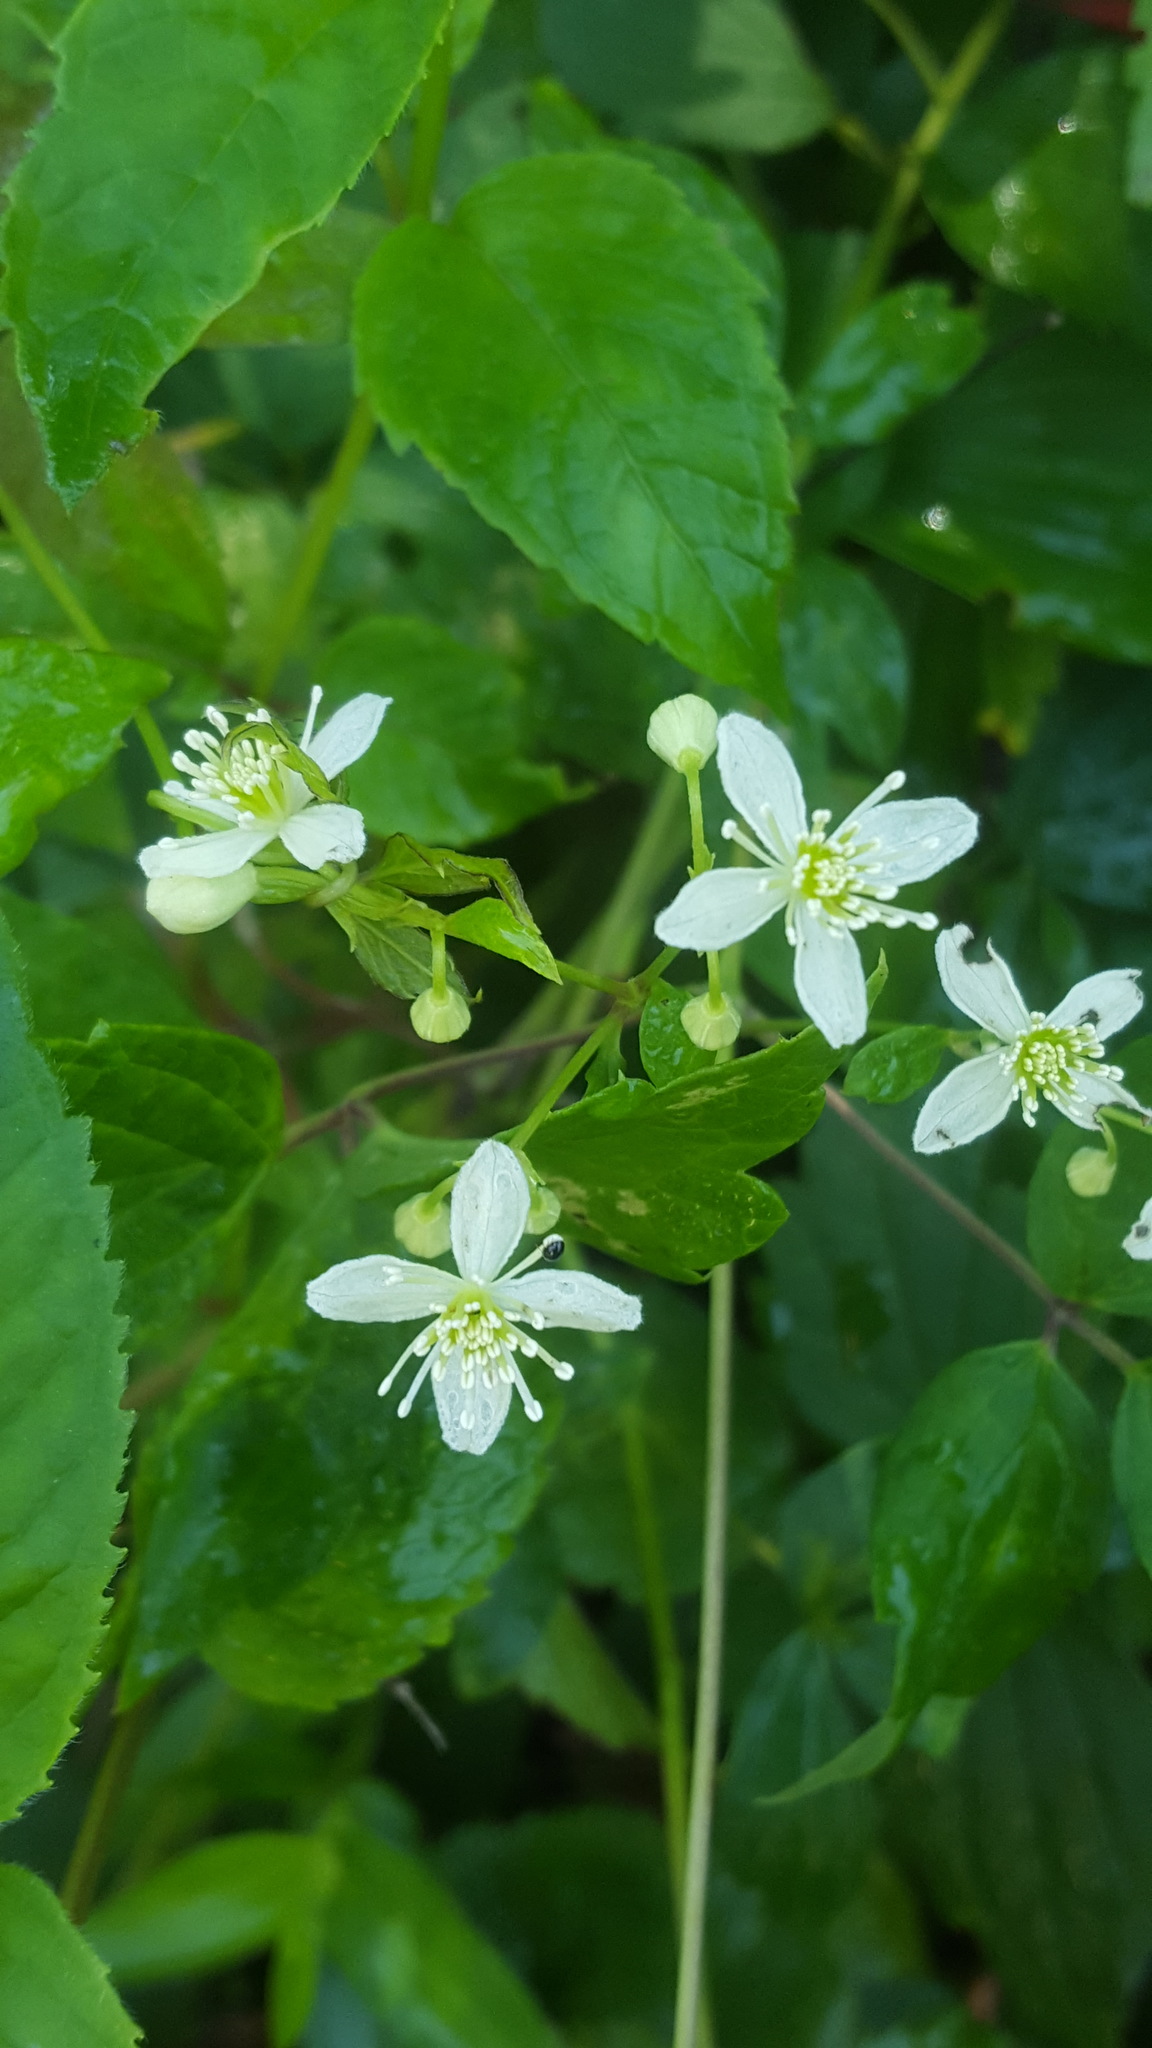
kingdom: Plantae
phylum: Tracheophyta
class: Magnoliopsida
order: Ranunculales
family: Ranunculaceae
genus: Clematis
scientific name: Clematis virginiana
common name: Virgin's-bower
